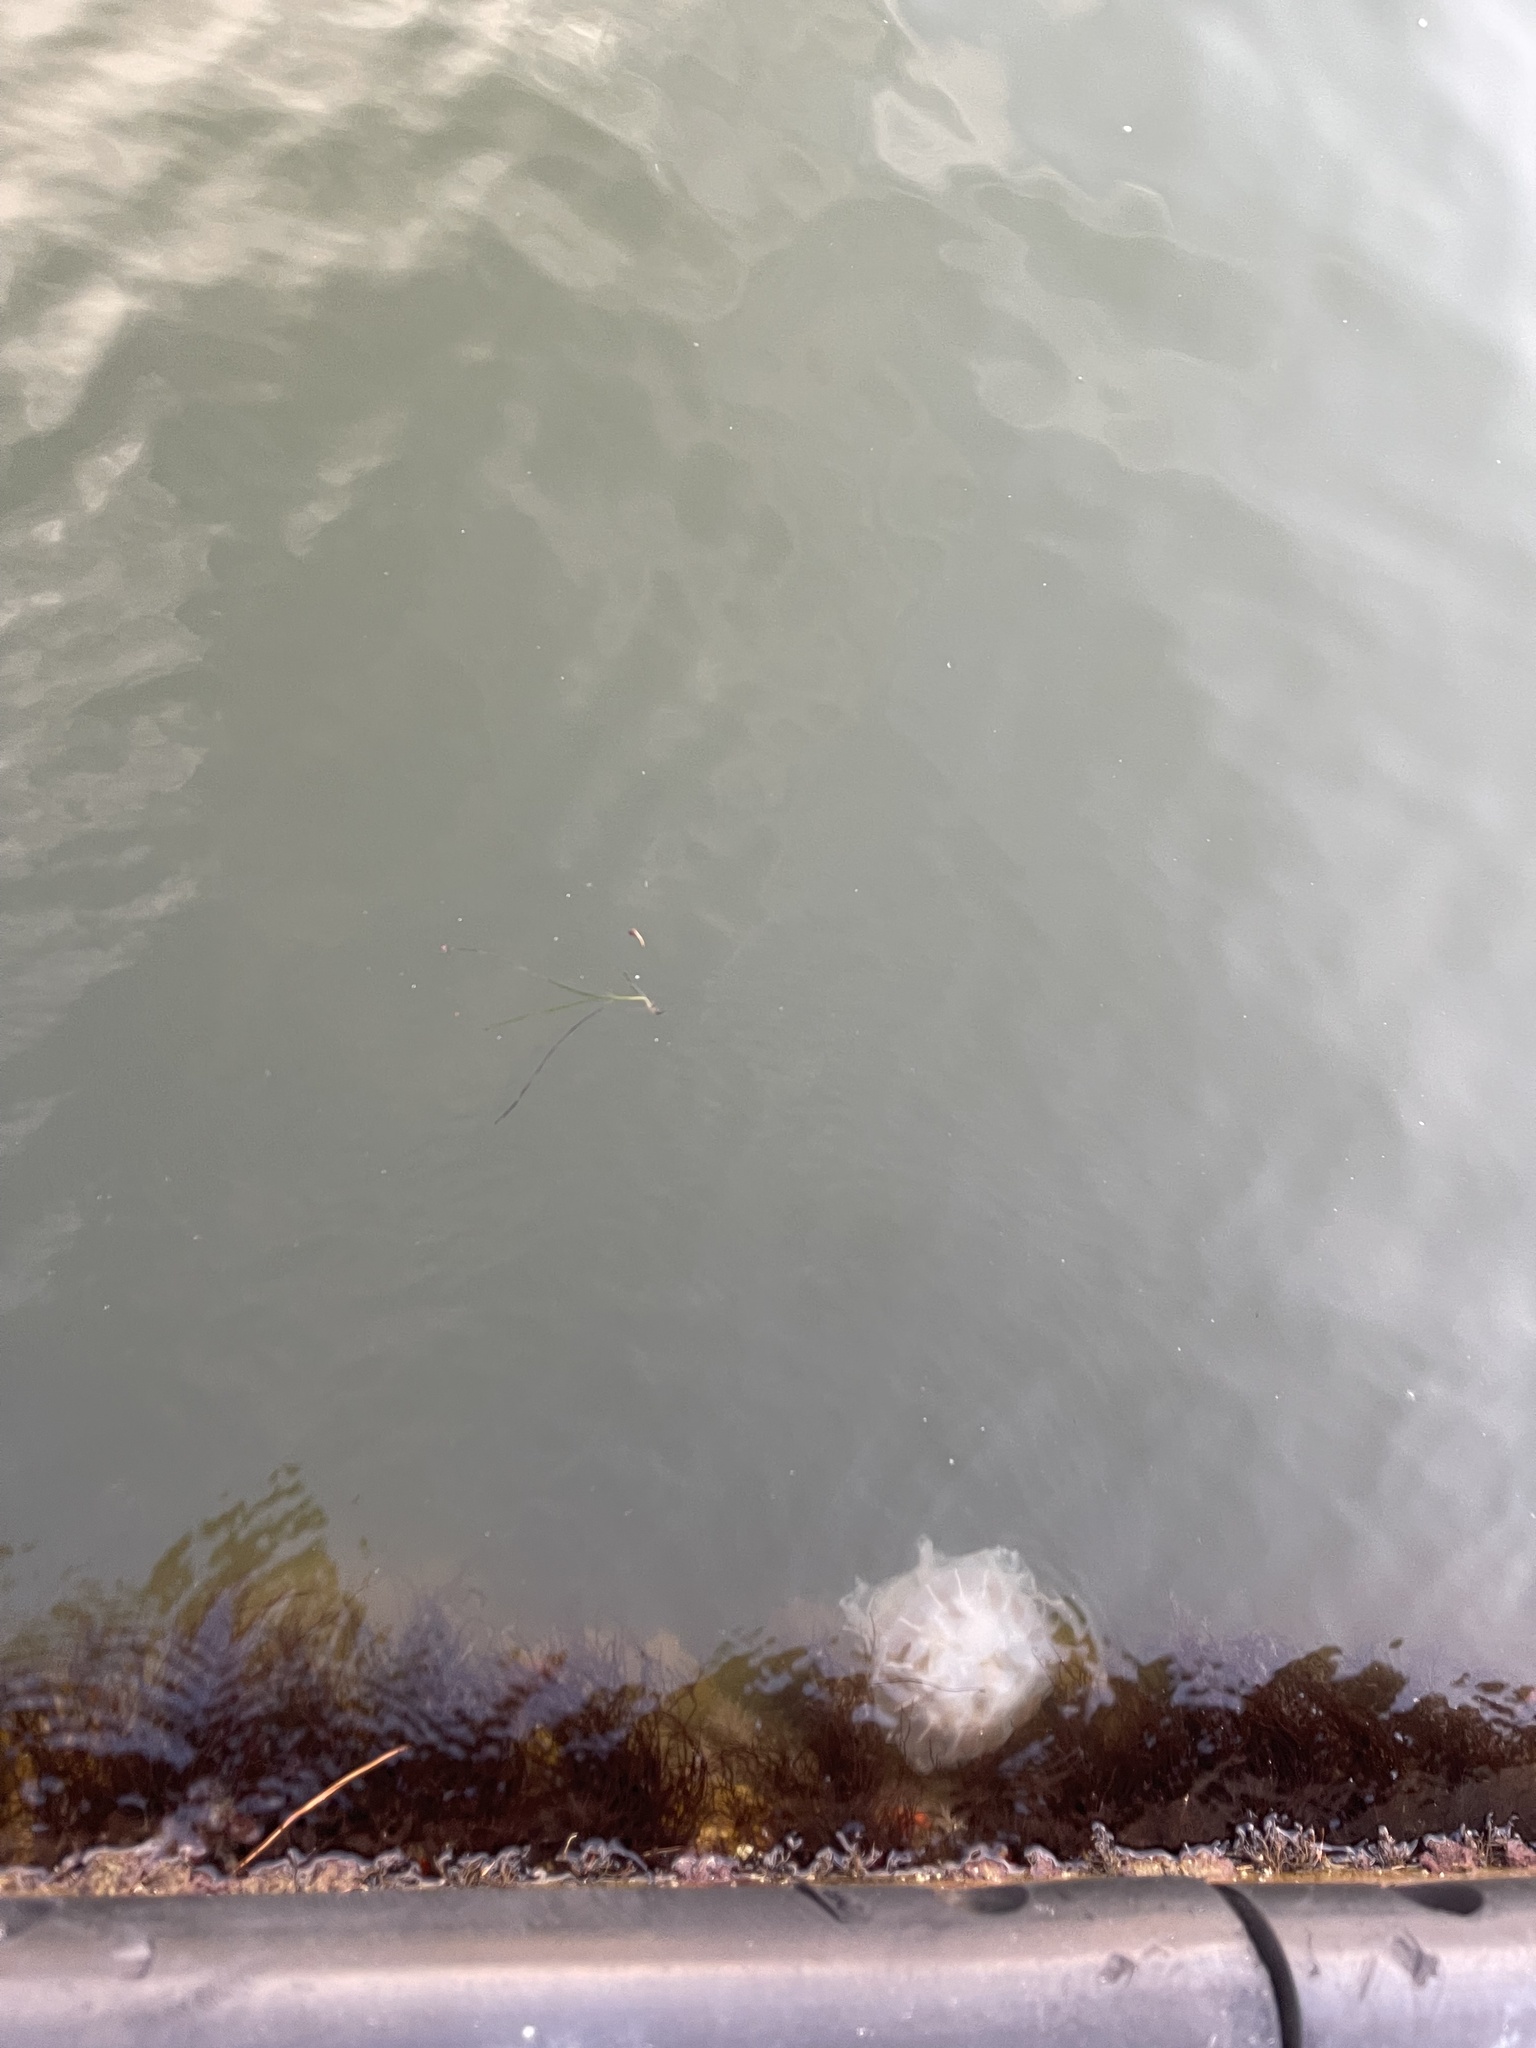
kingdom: Animalia
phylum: Cnidaria
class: Scyphozoa
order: Semaeostomeae
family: Pelagiidae
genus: Chrysaora
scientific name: Chrysaora chesapeakei
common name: Bay nettle
